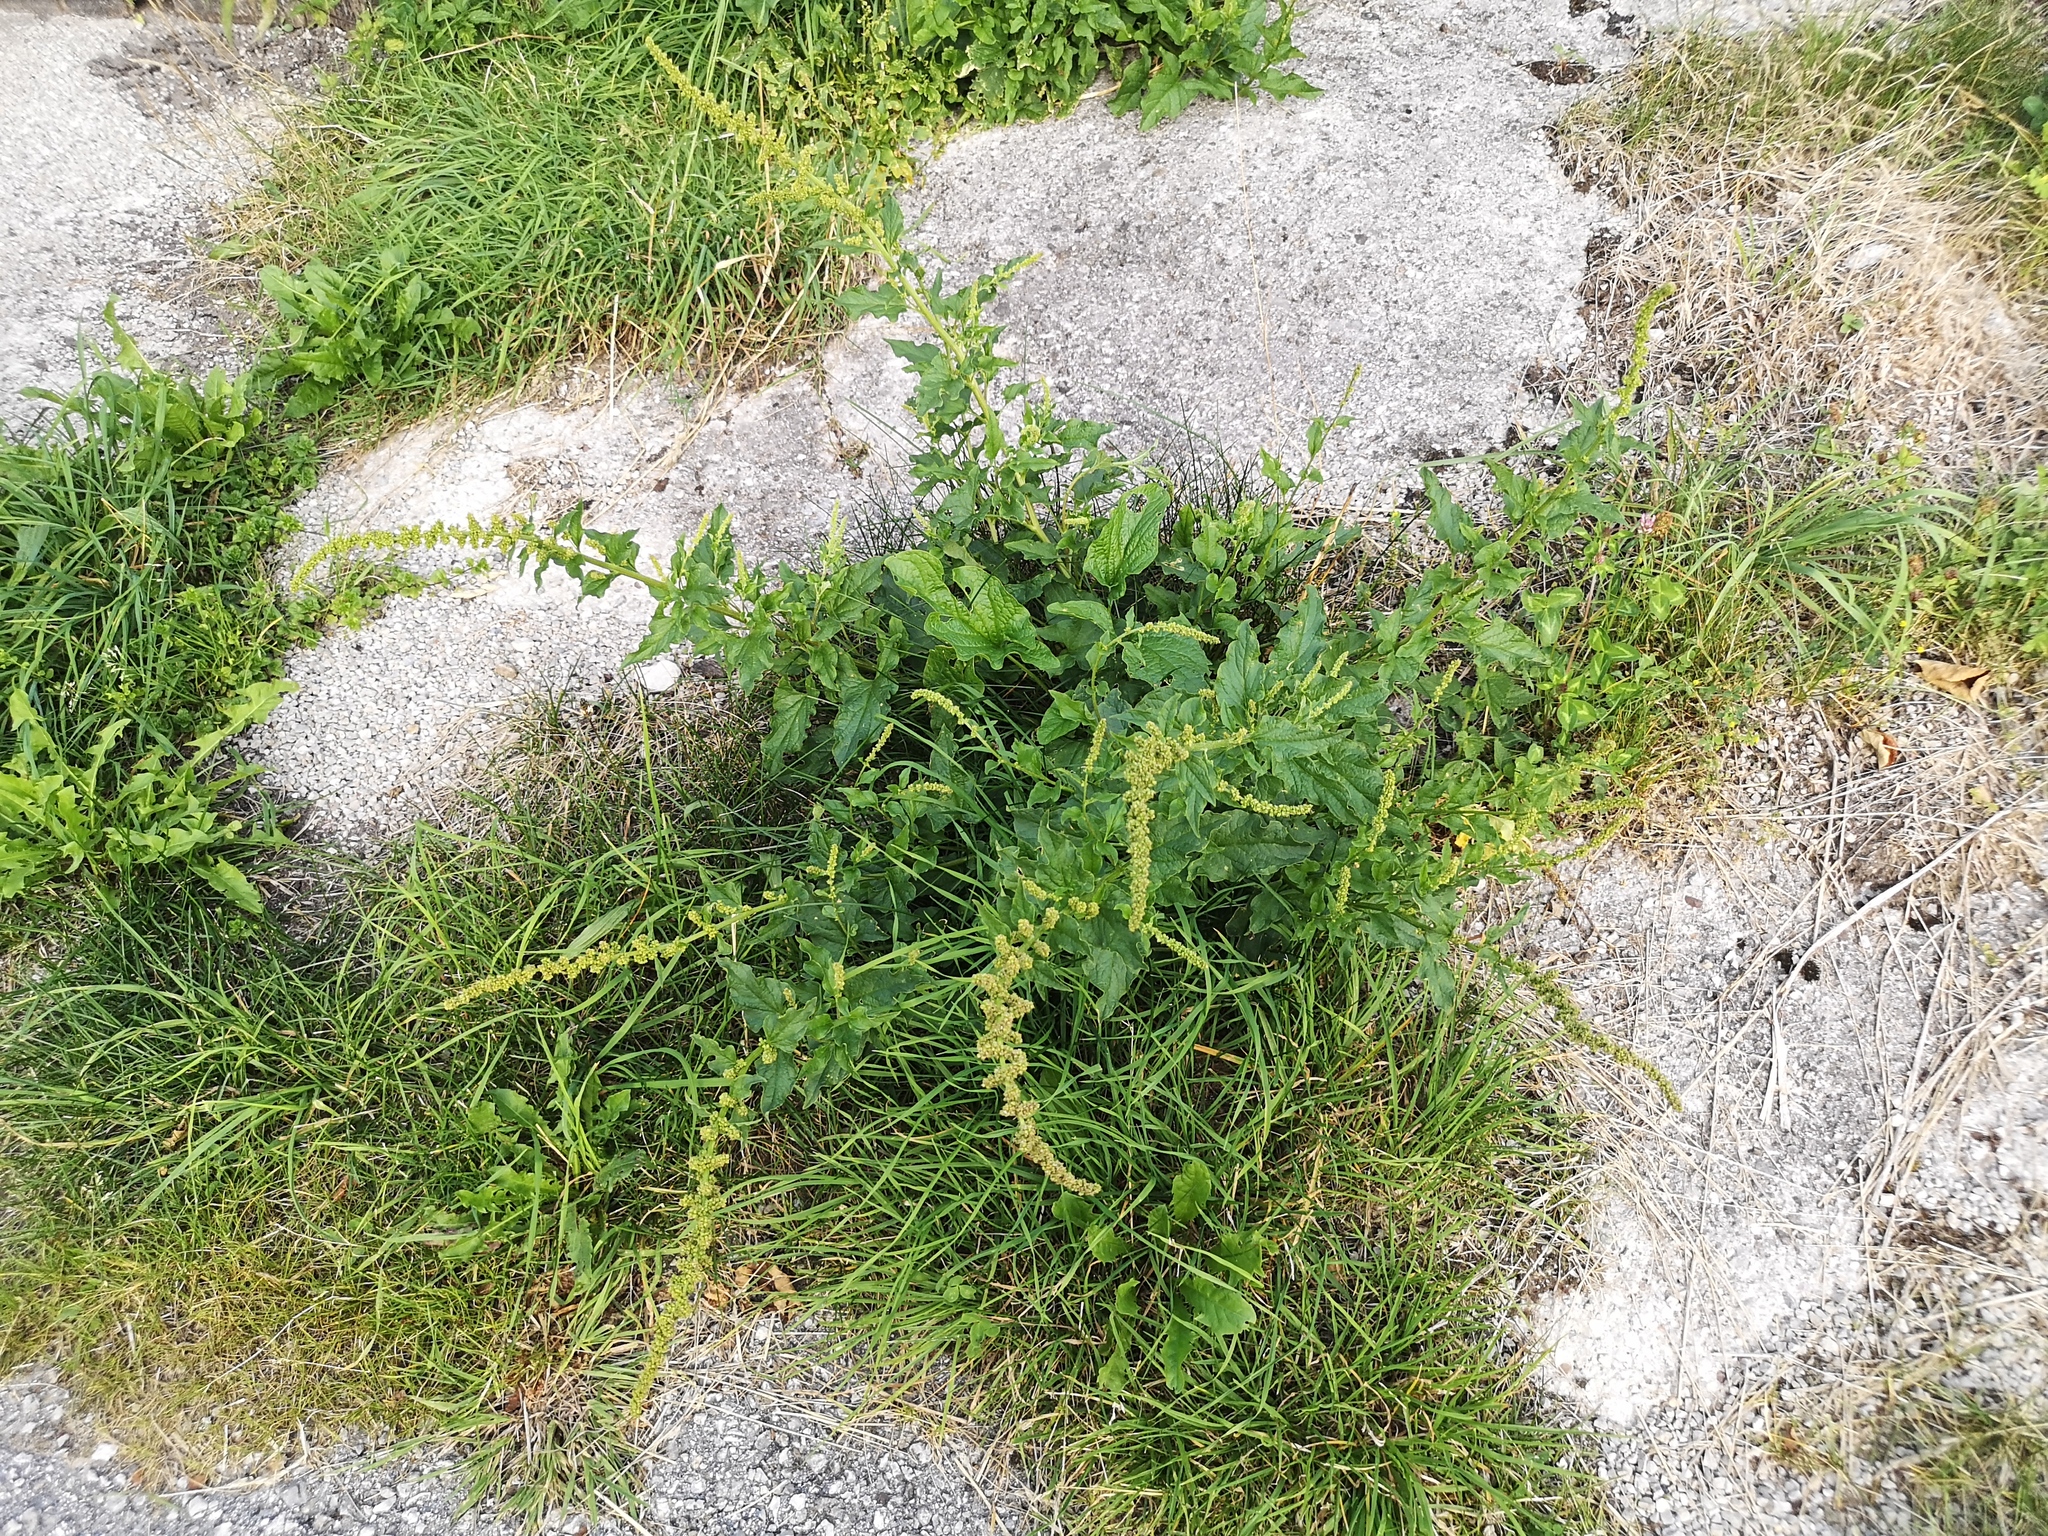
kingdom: Plantae
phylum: Tracheophyta
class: Magnoliopsida
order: Caryophyllales
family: Amaranthaceae
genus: Blitum
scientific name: Blitum bonus-henricus
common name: Good king henry
